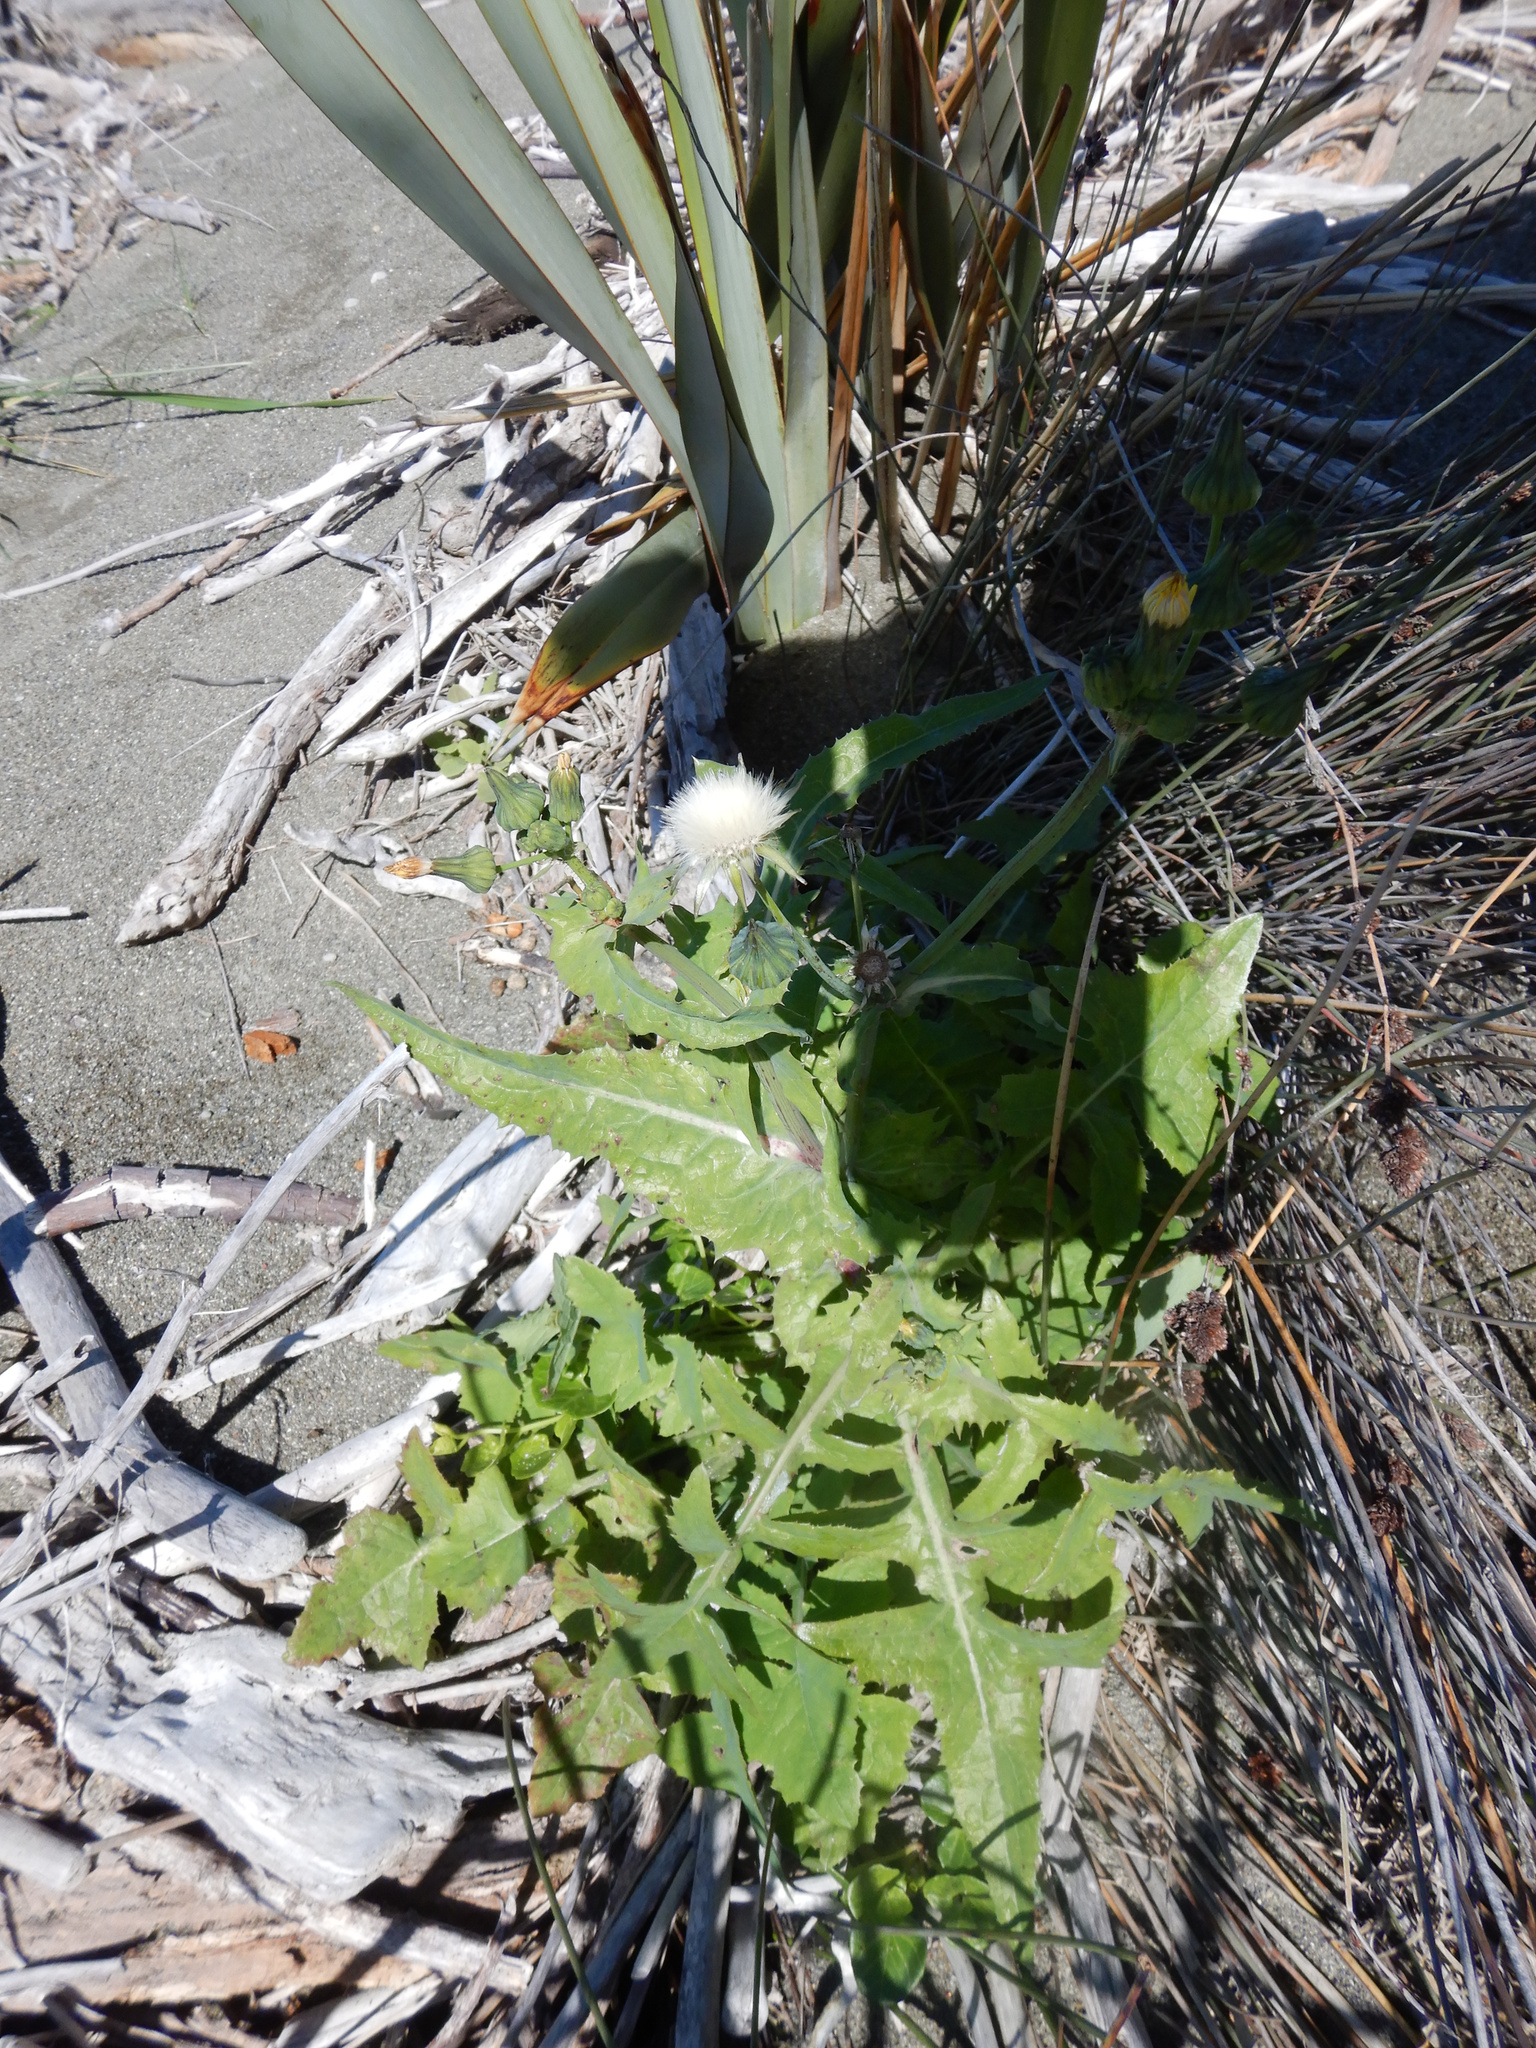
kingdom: Plantae
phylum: Tracheophyta
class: Magnoliopsida
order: Asterales
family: Asteraceae
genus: Sonchus
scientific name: Sonchus oleraceus
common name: Common sowthistle
